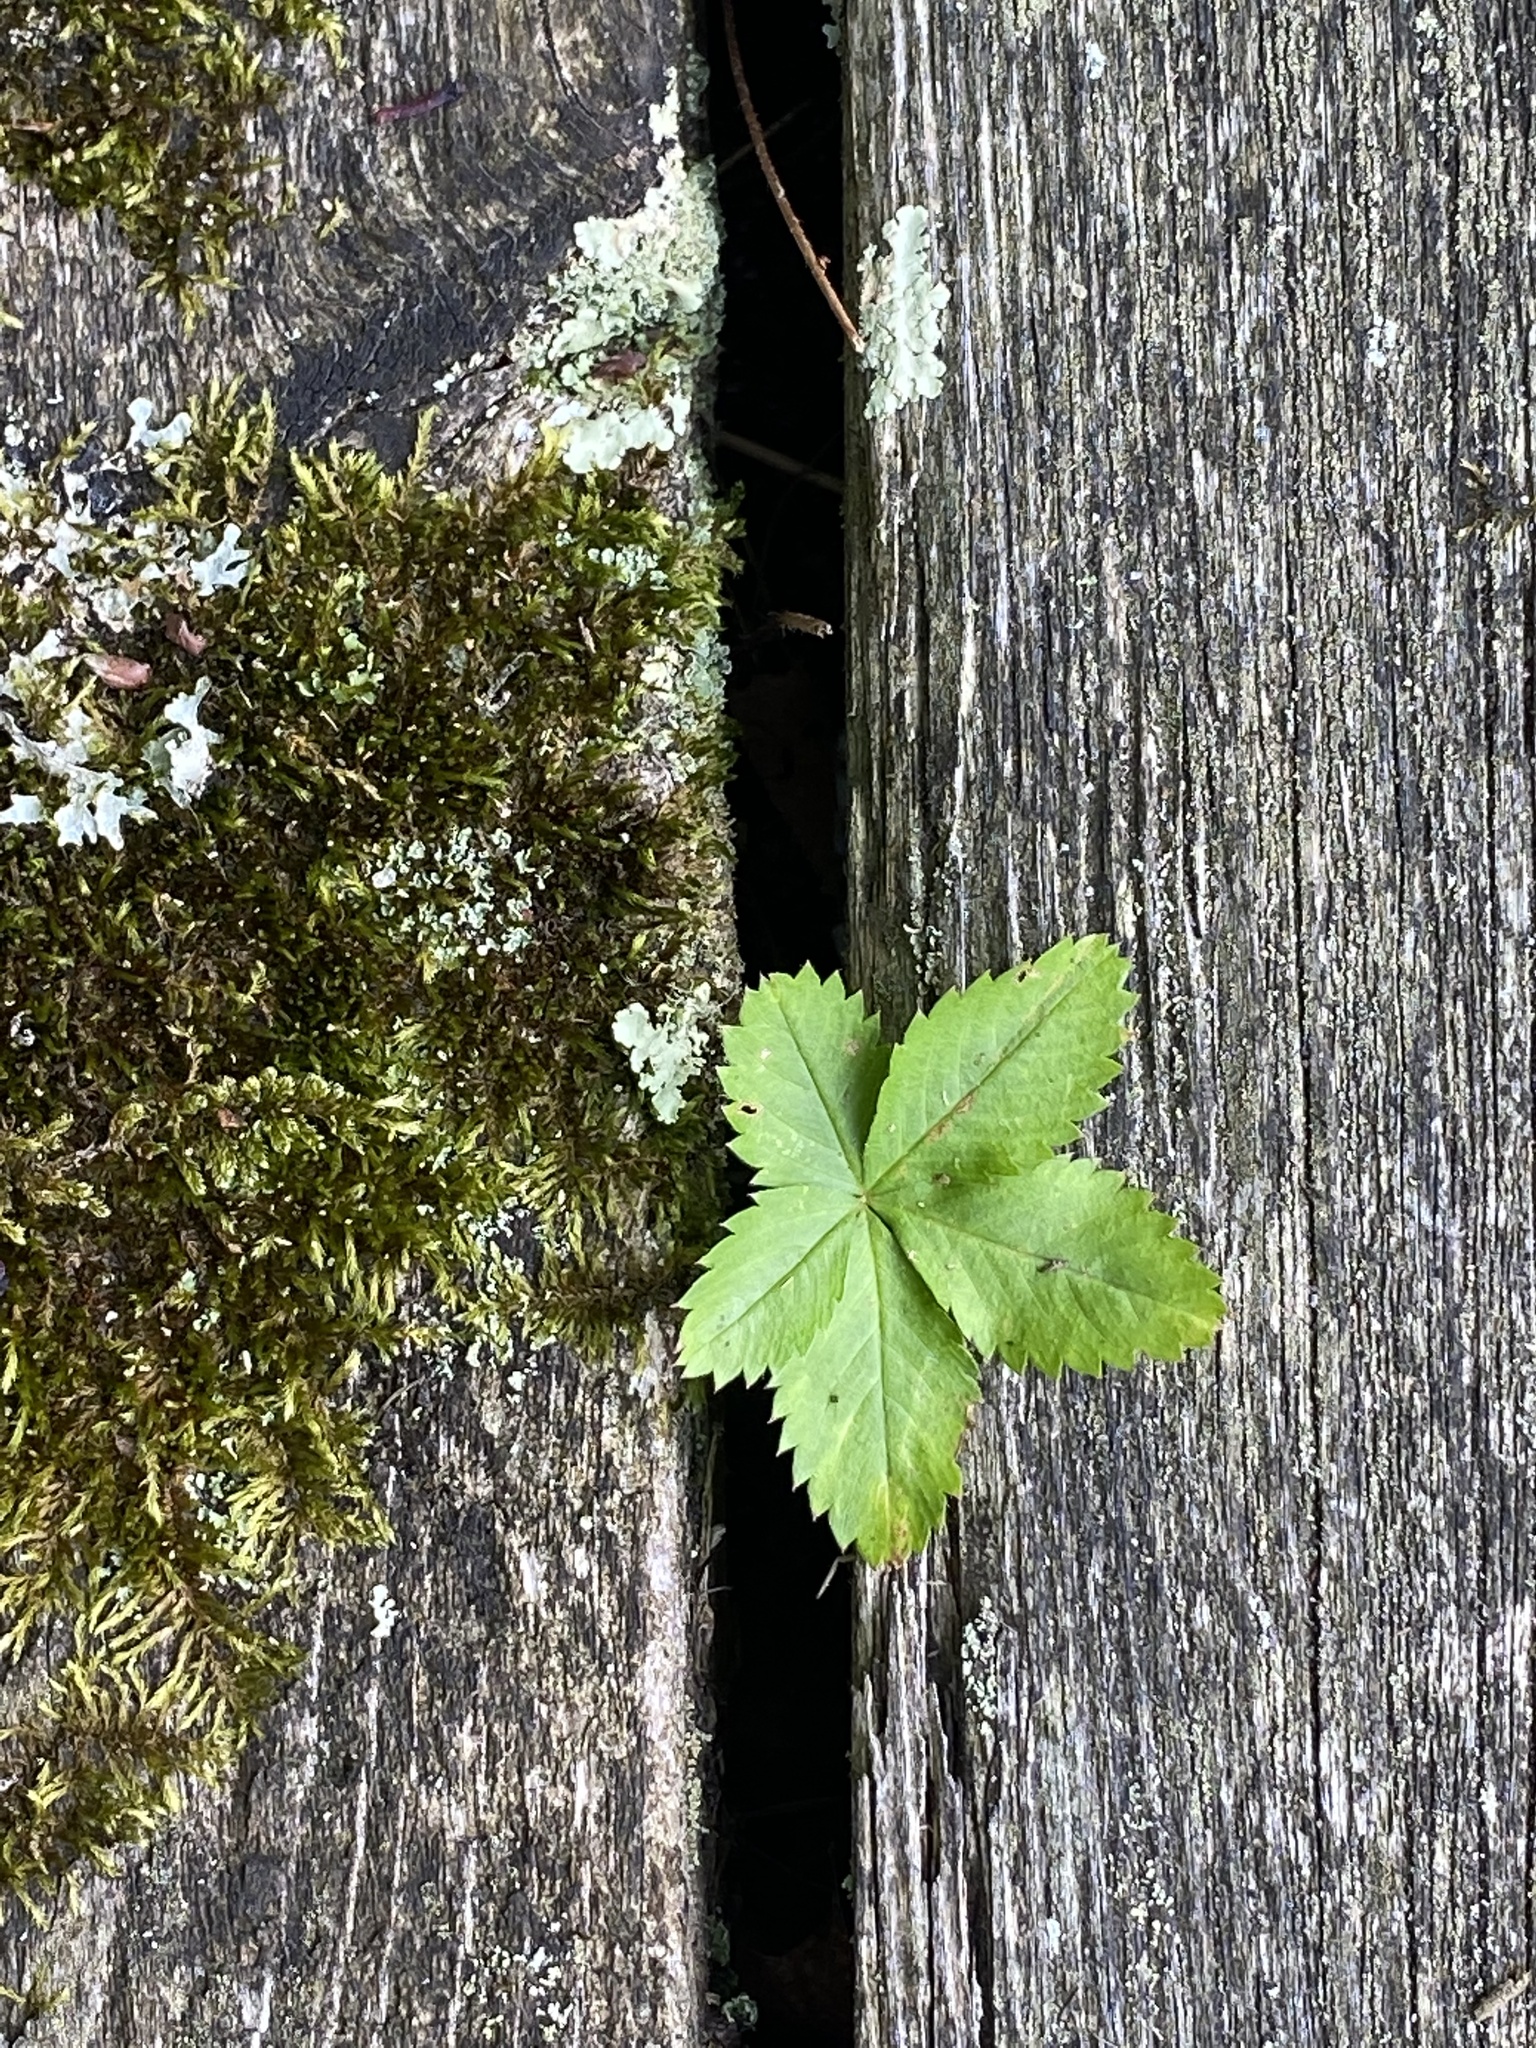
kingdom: Plantae
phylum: Tracheophyta
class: Magnoliopsida
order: Rosales
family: Rosaceae
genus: Potentilla
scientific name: Potentilla canadensis
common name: Canada cinquefoil
